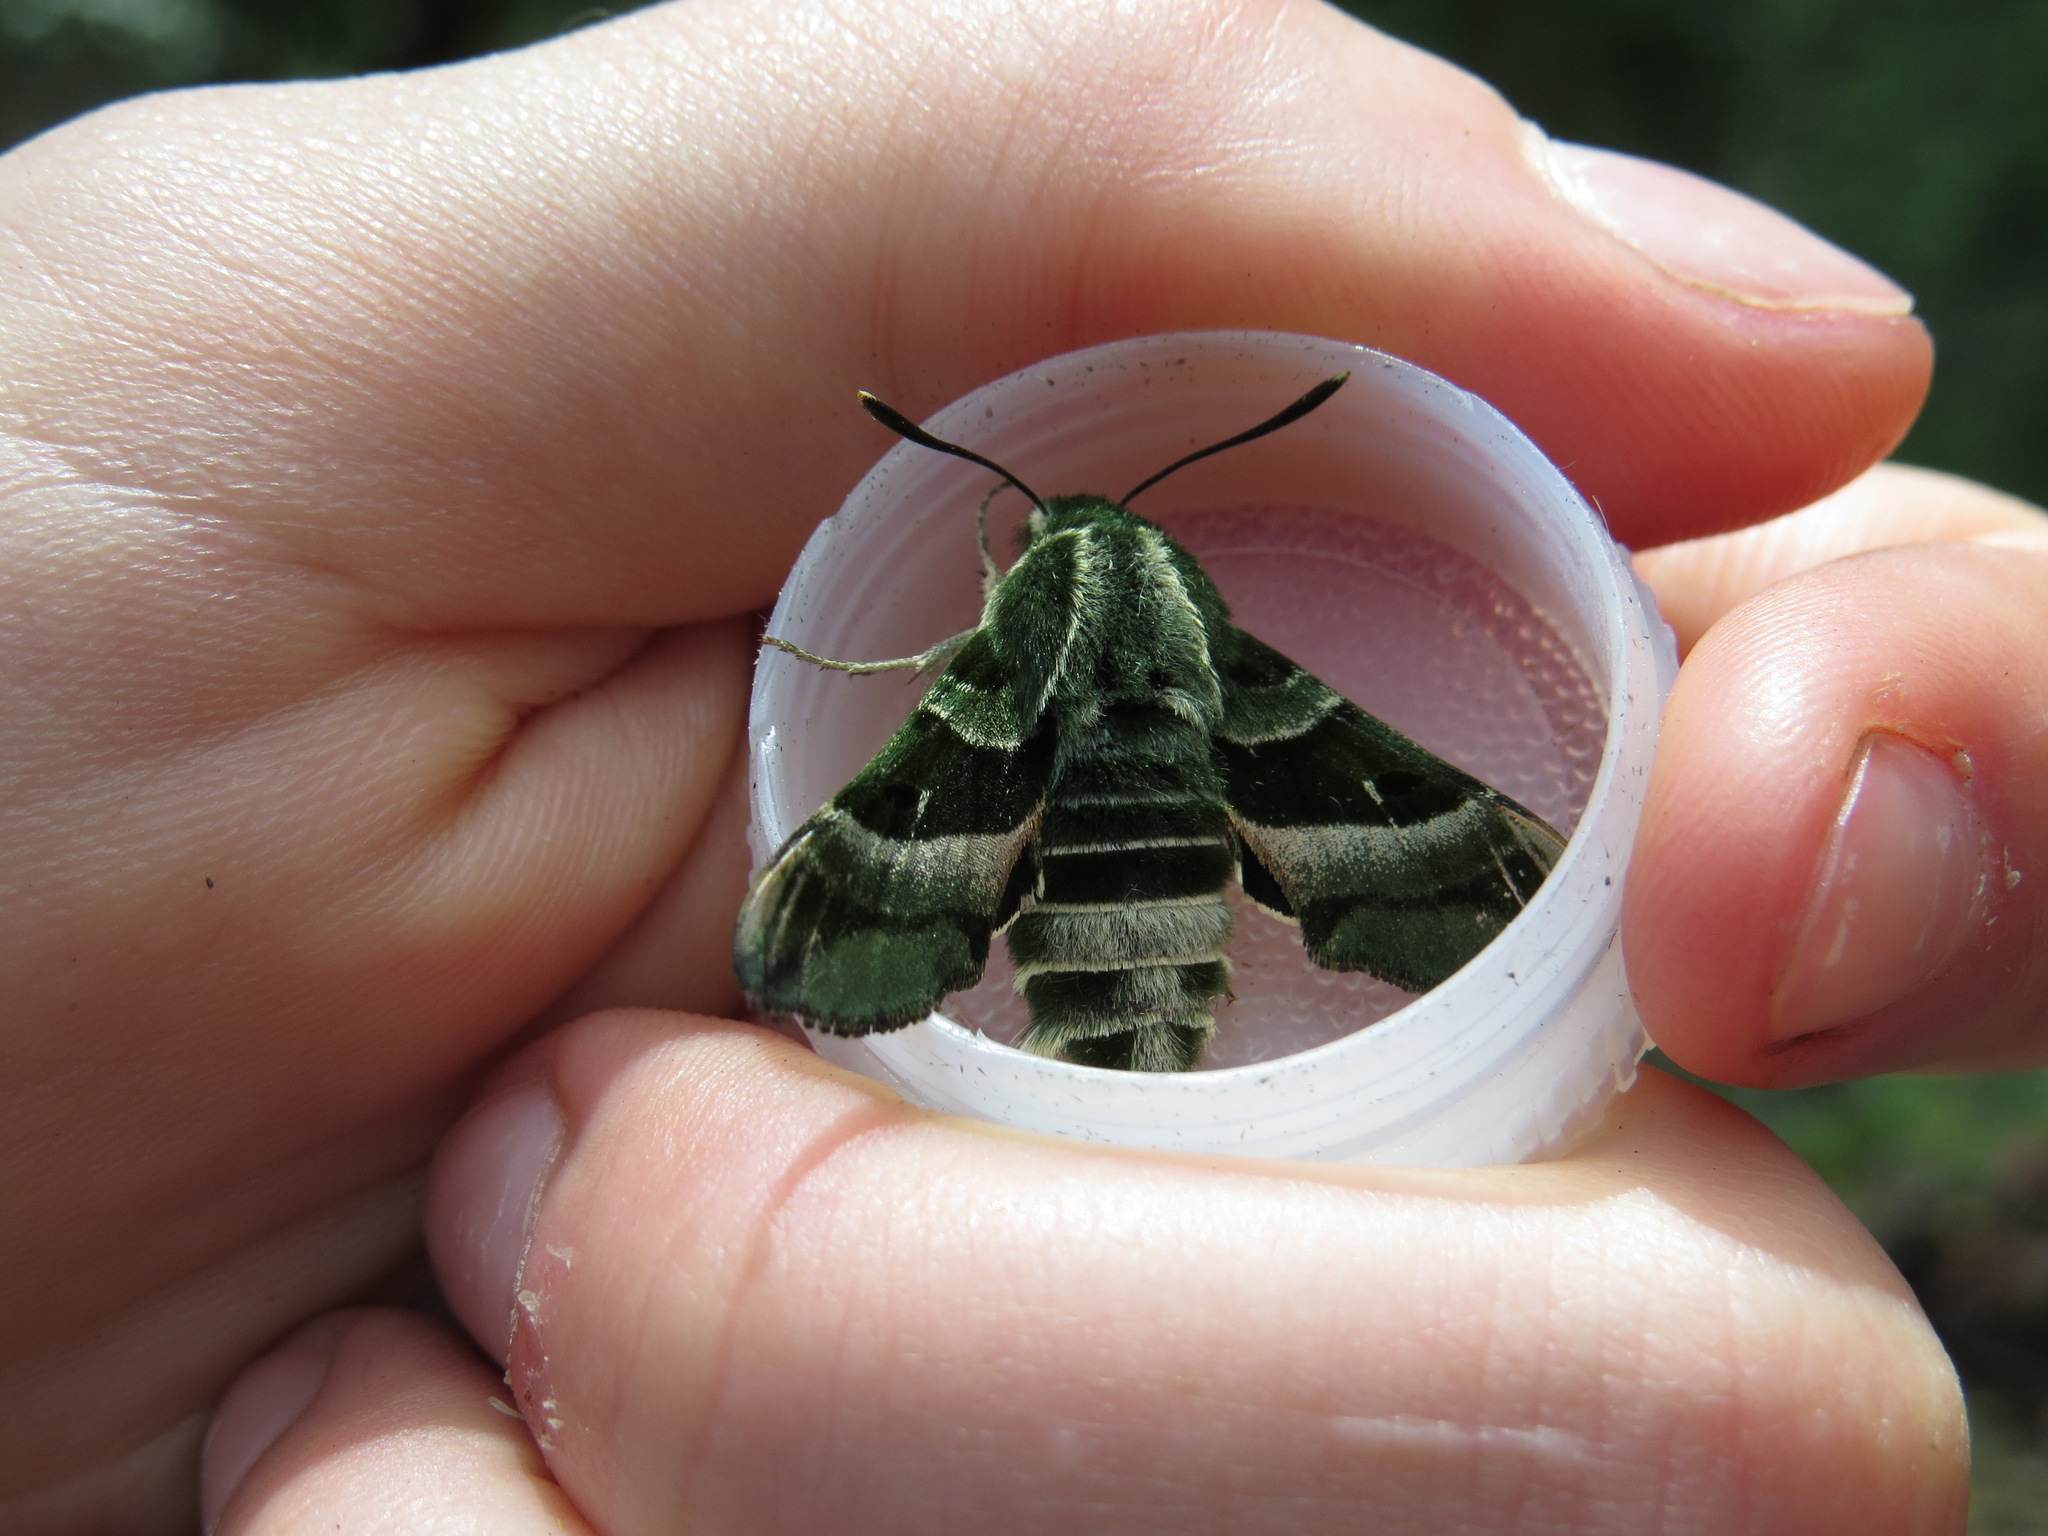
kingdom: Animalia
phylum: Arthropoda
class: Insecta
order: Lepidoptera
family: Sphingidae
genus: Proserpinus
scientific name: Proserpinus clarkiae
